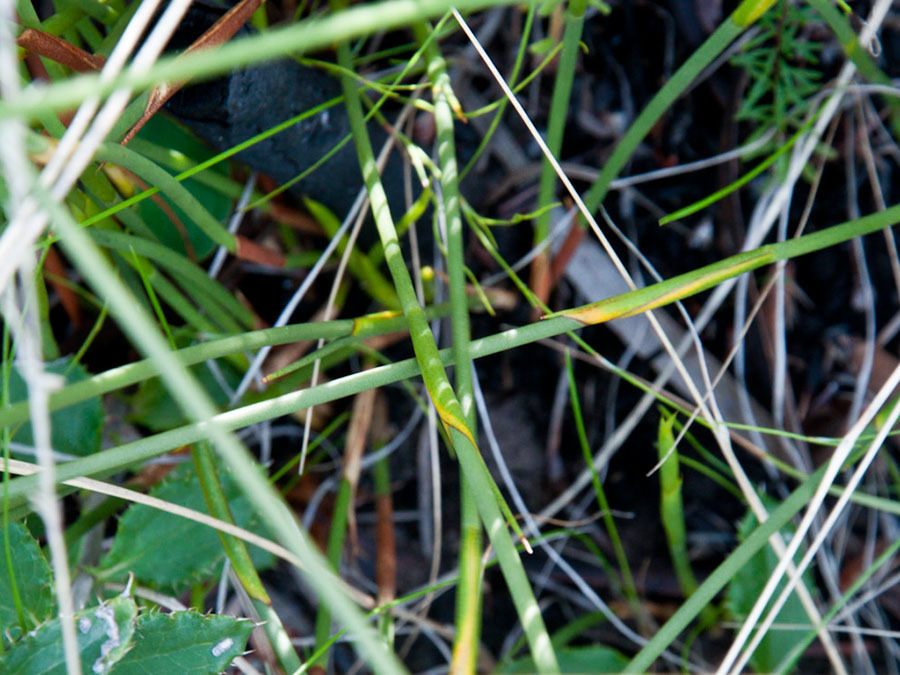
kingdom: Plantae
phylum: Tracheophyta
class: Liliopsida
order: Poales
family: Restionaceae
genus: Hypodiscus
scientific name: Hypodiscus aristatus
